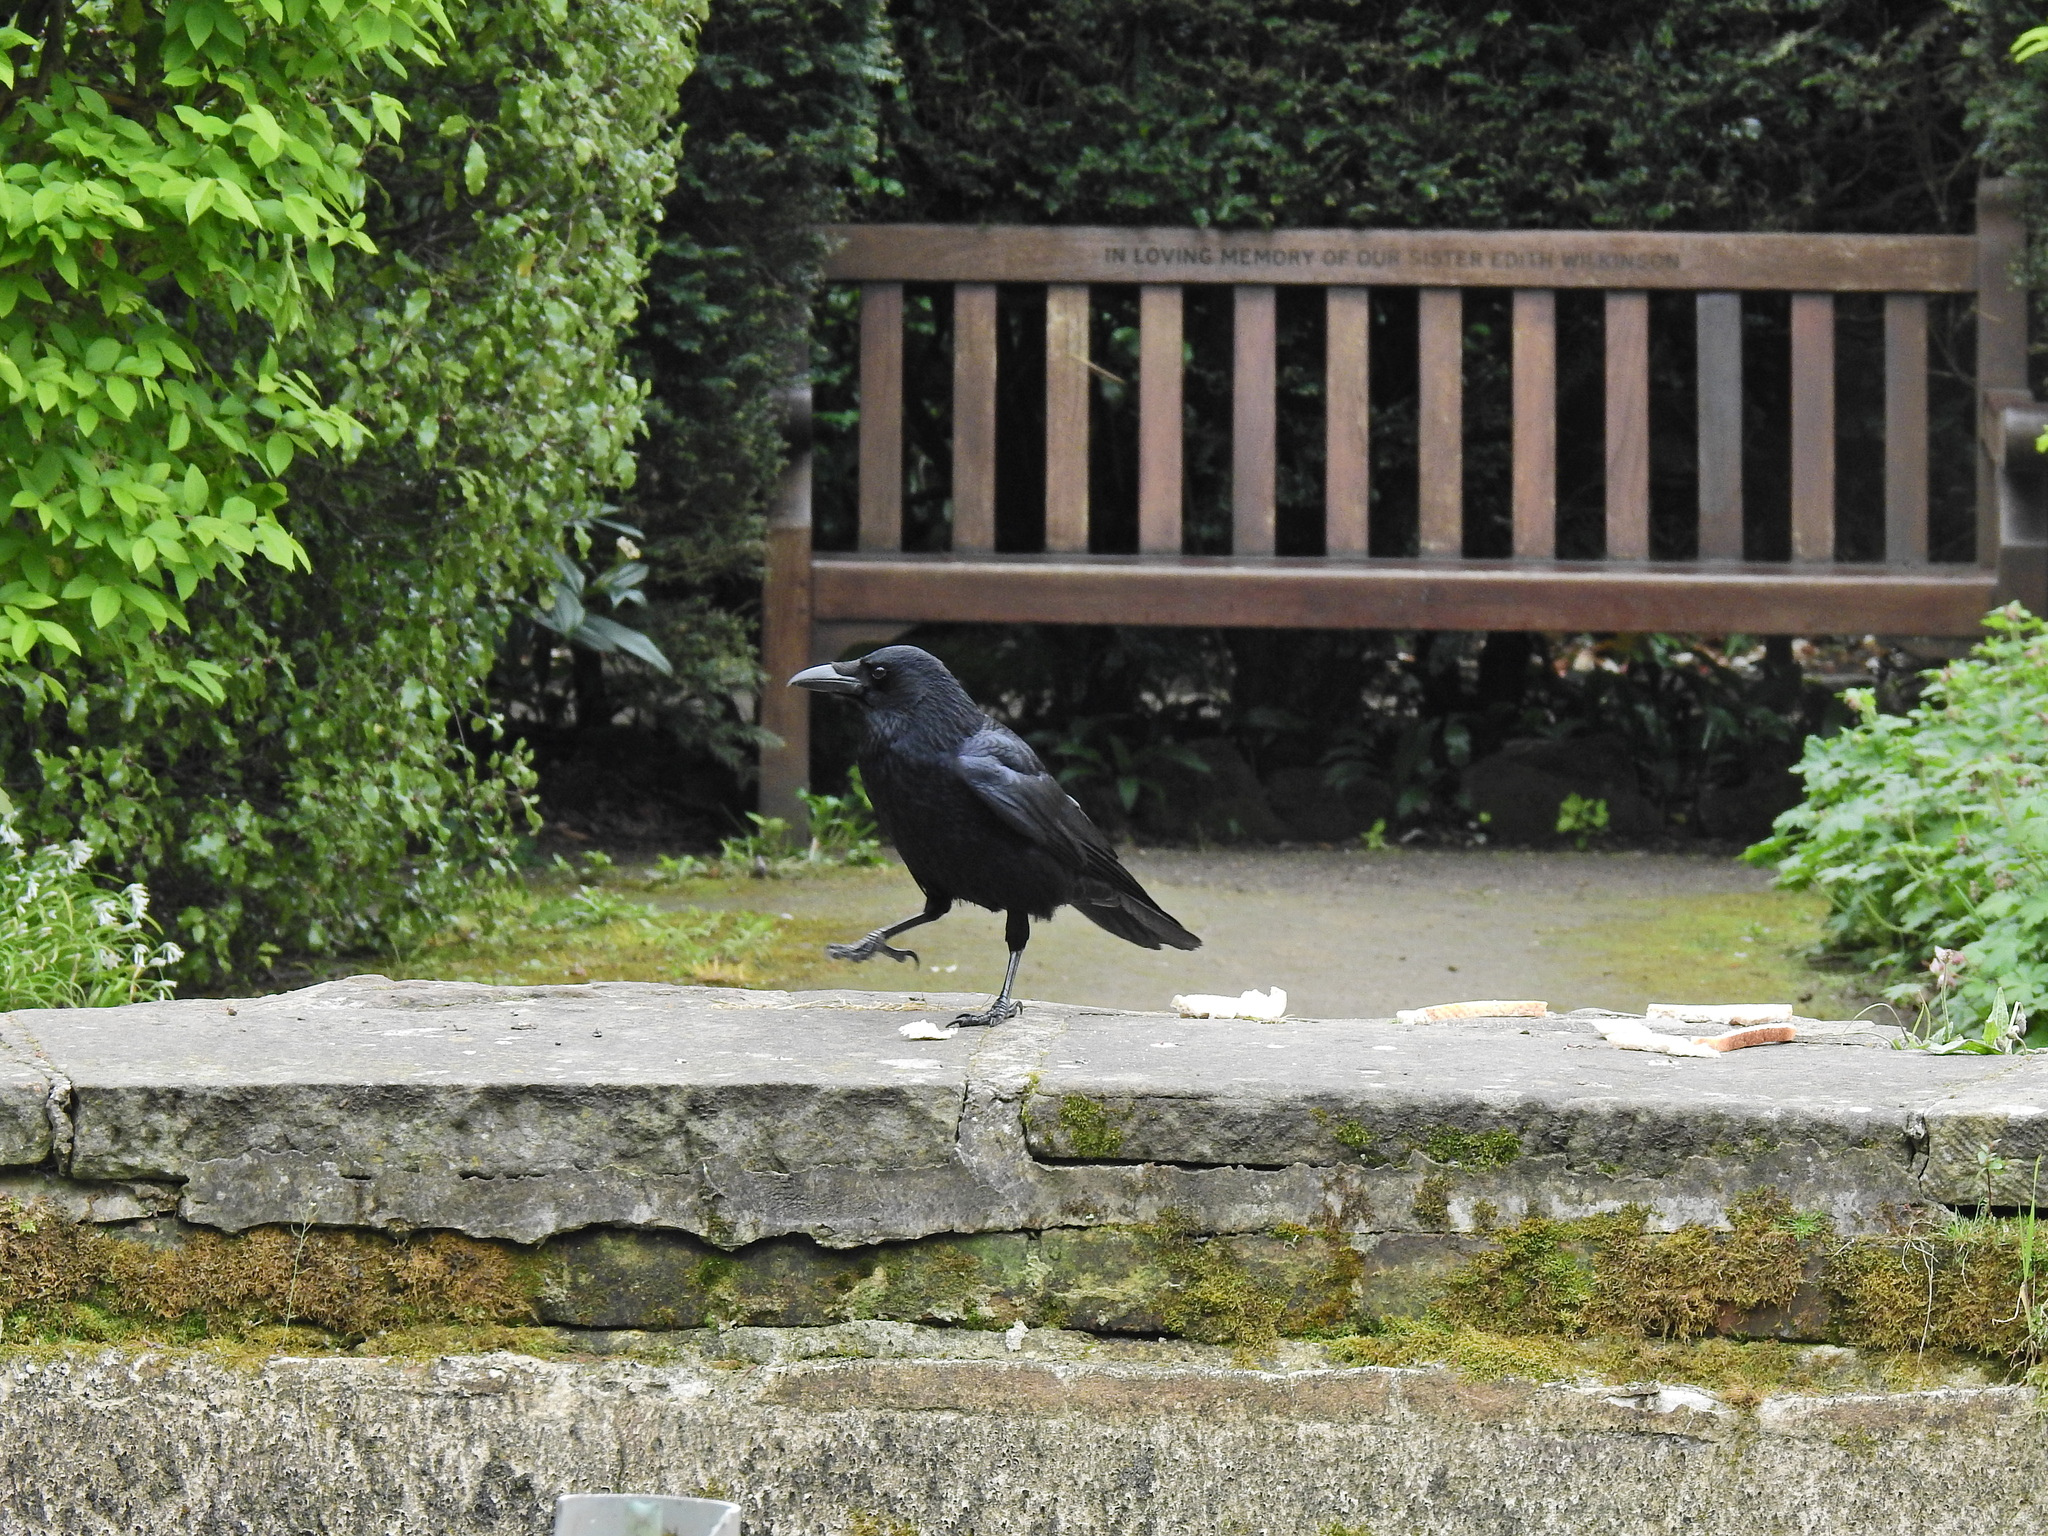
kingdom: Animalia
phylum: Chordata
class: Aves
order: Passeriformes
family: Corvidae
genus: Corvus
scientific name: Corvus corone
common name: Carrion crow
